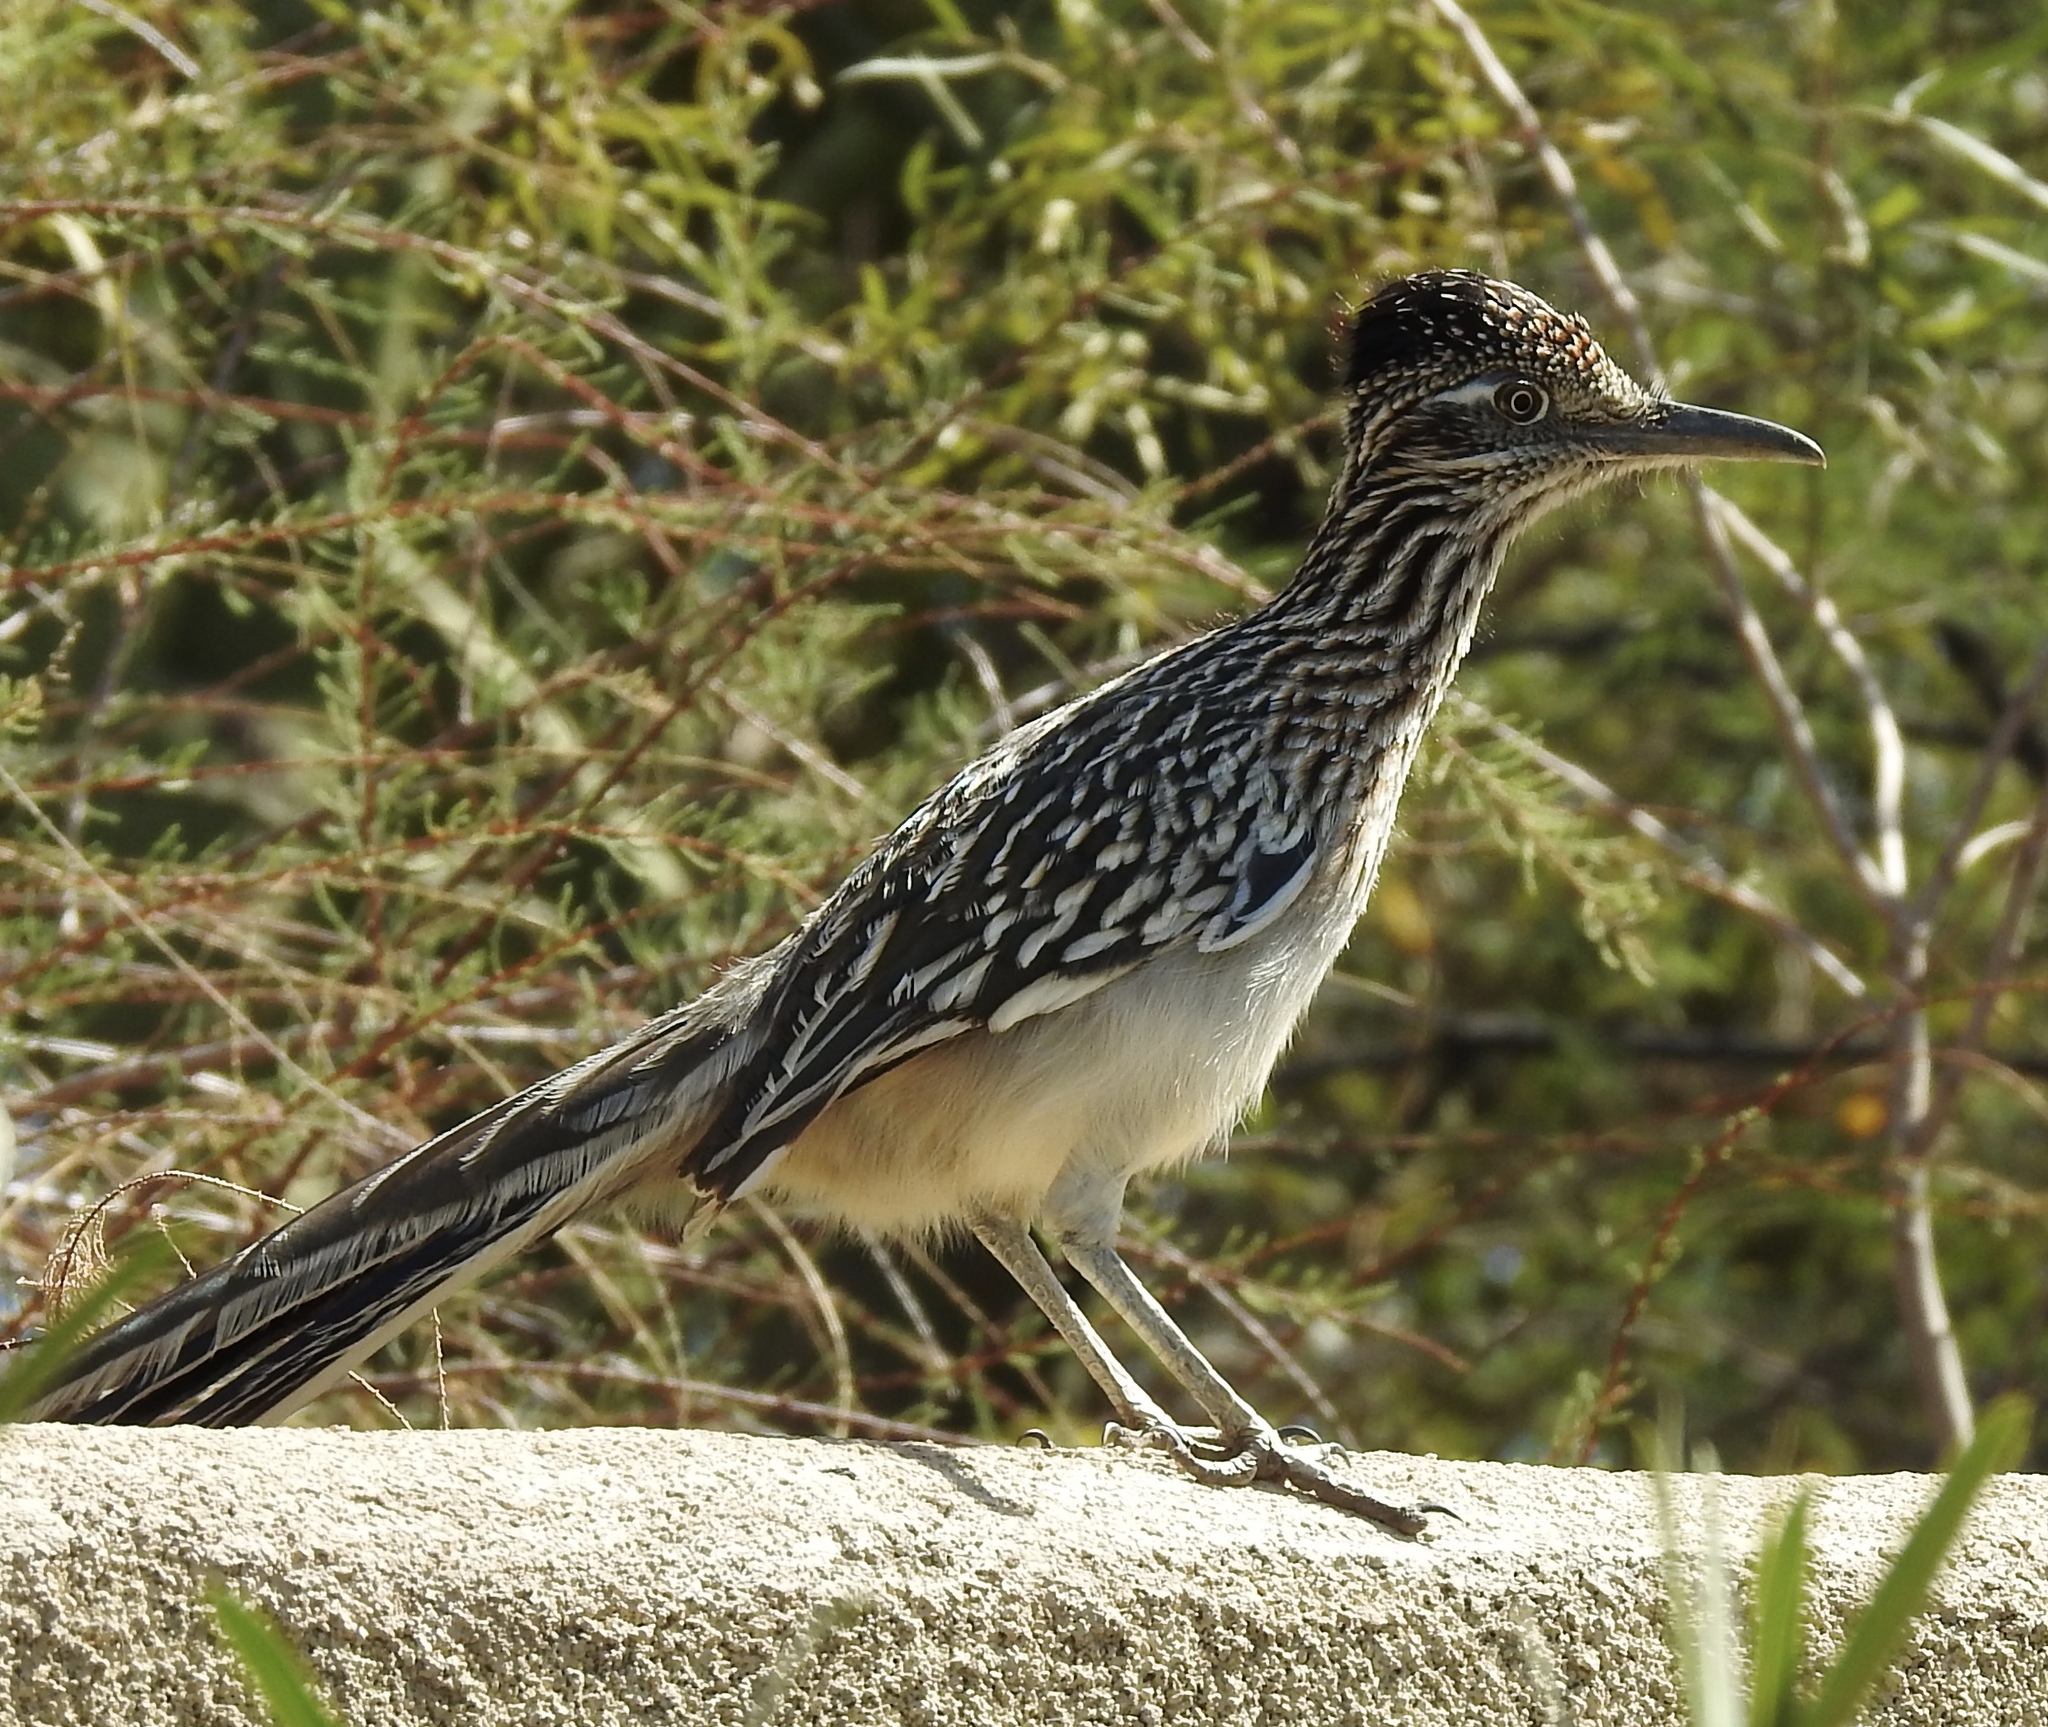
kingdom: Animalia
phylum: Chordata
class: Aves
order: Cuculiformes
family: Cuculidae
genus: Geococcyx
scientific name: Geococcyx californianus
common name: Greater roadrunner
